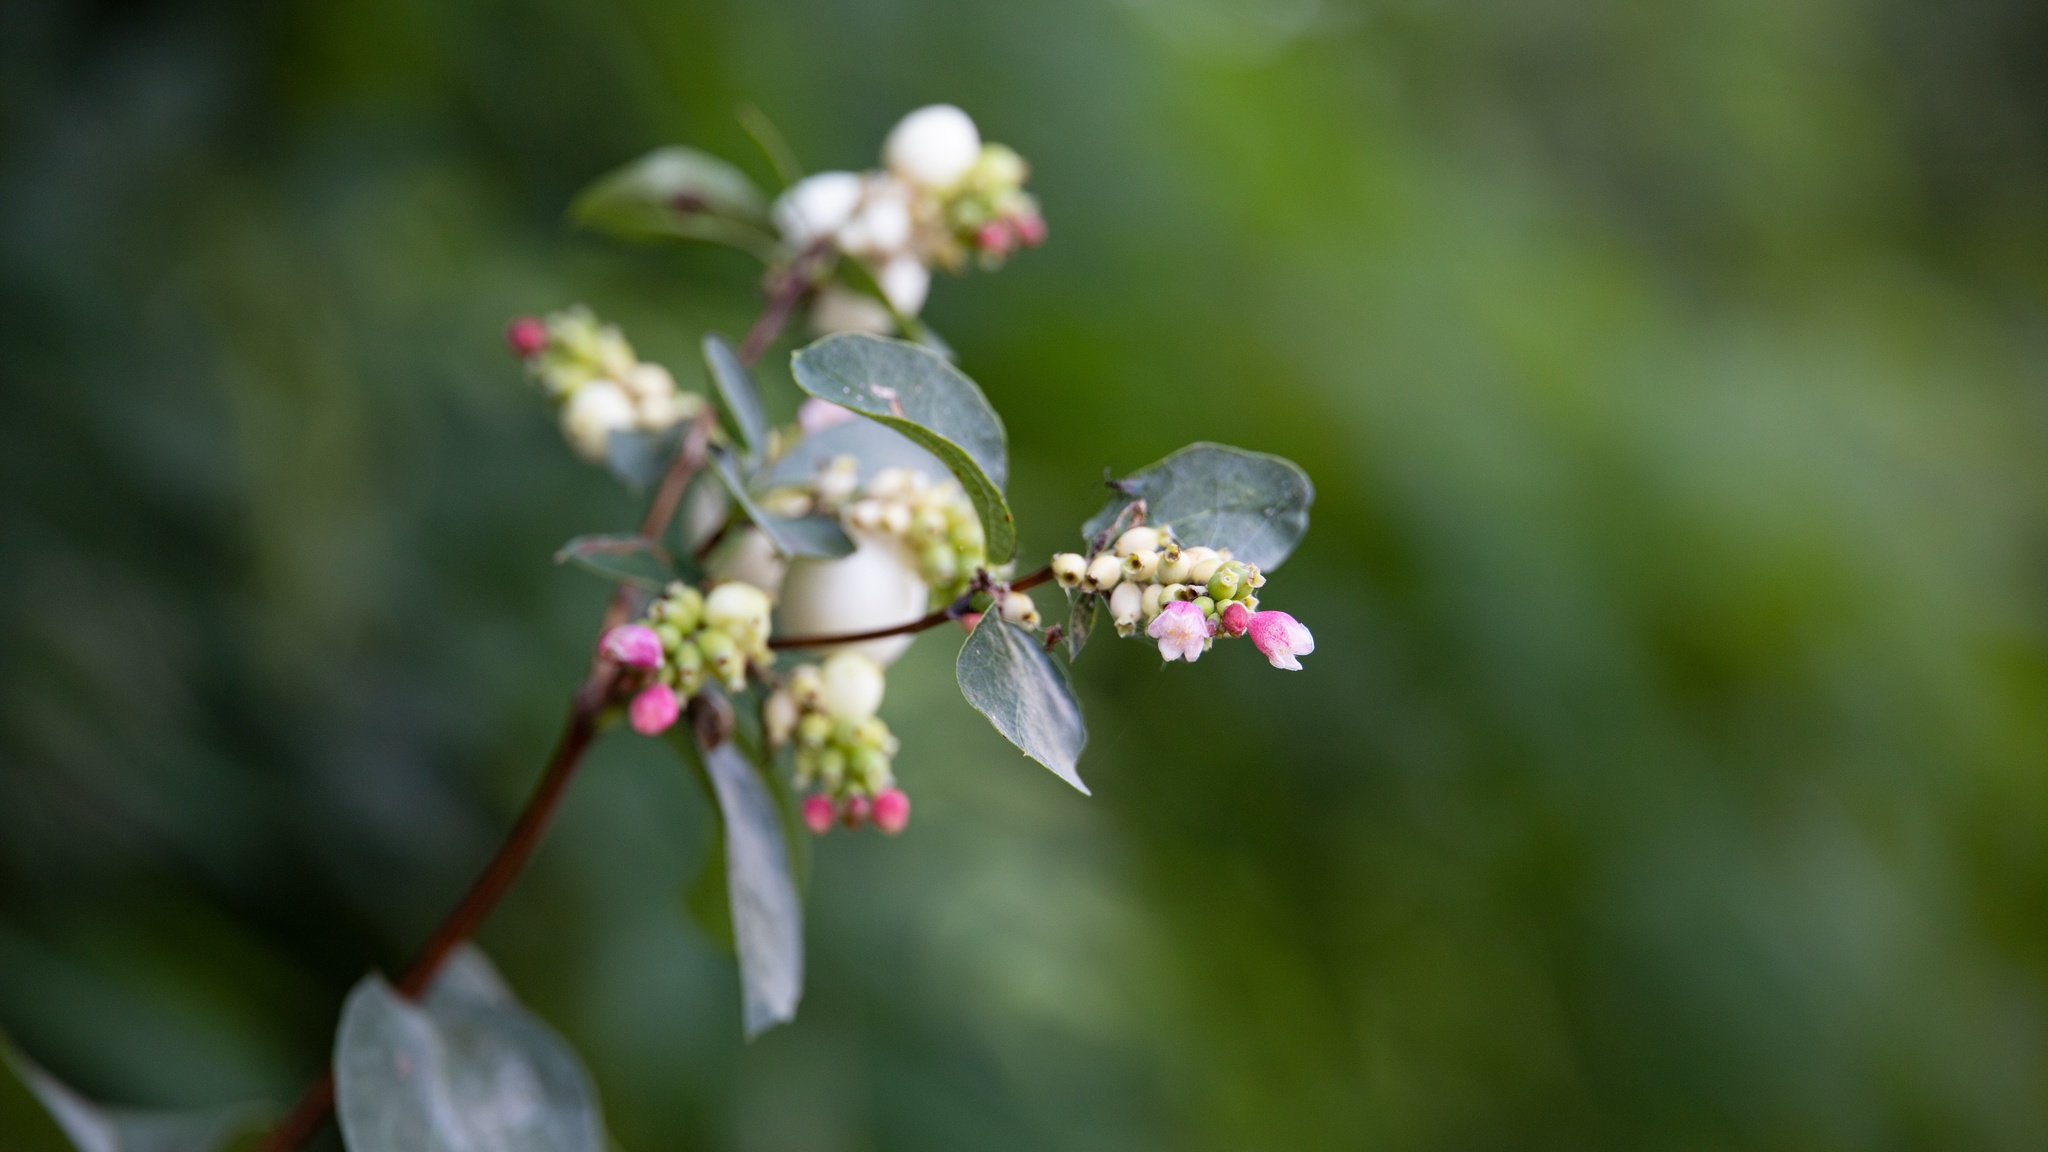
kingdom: Plantae
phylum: Tracheophyta
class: Magnoliopsida
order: Dipsacales
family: Caprifoliaceae
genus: Symphoricarpos
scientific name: Symphoricarpos albus
